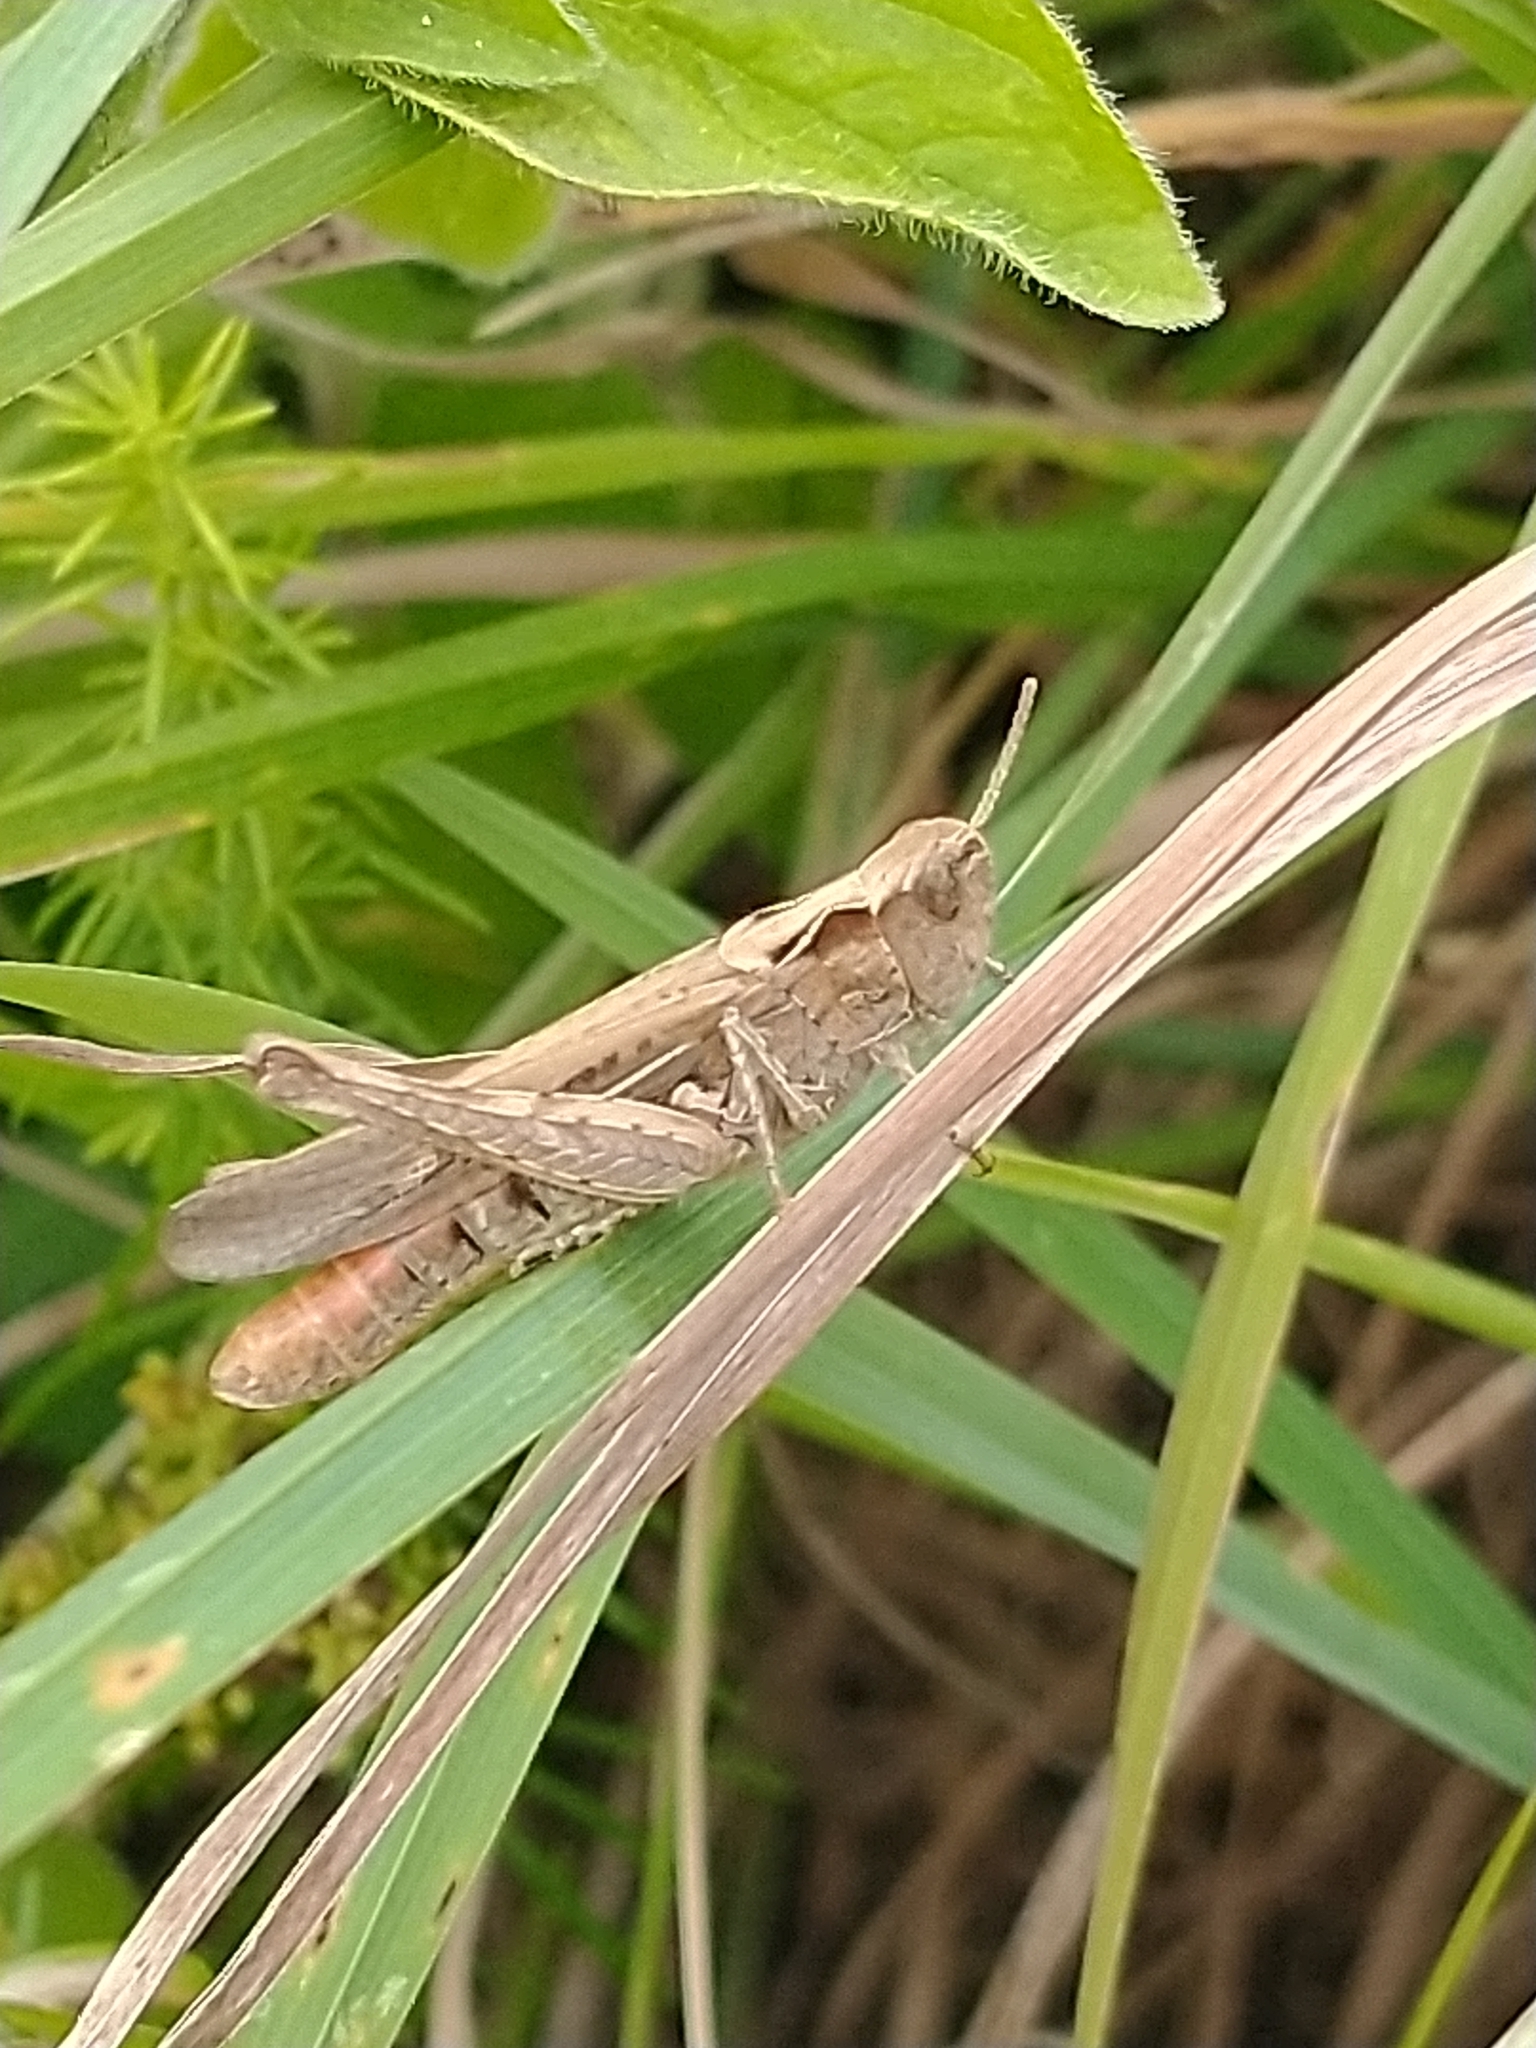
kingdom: Animalia
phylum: Arthropoda
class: Insecta
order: Orthoptera
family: Acrididae
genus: Chorthippus
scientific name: Chorthippus brunneus
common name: Field grasshopper
